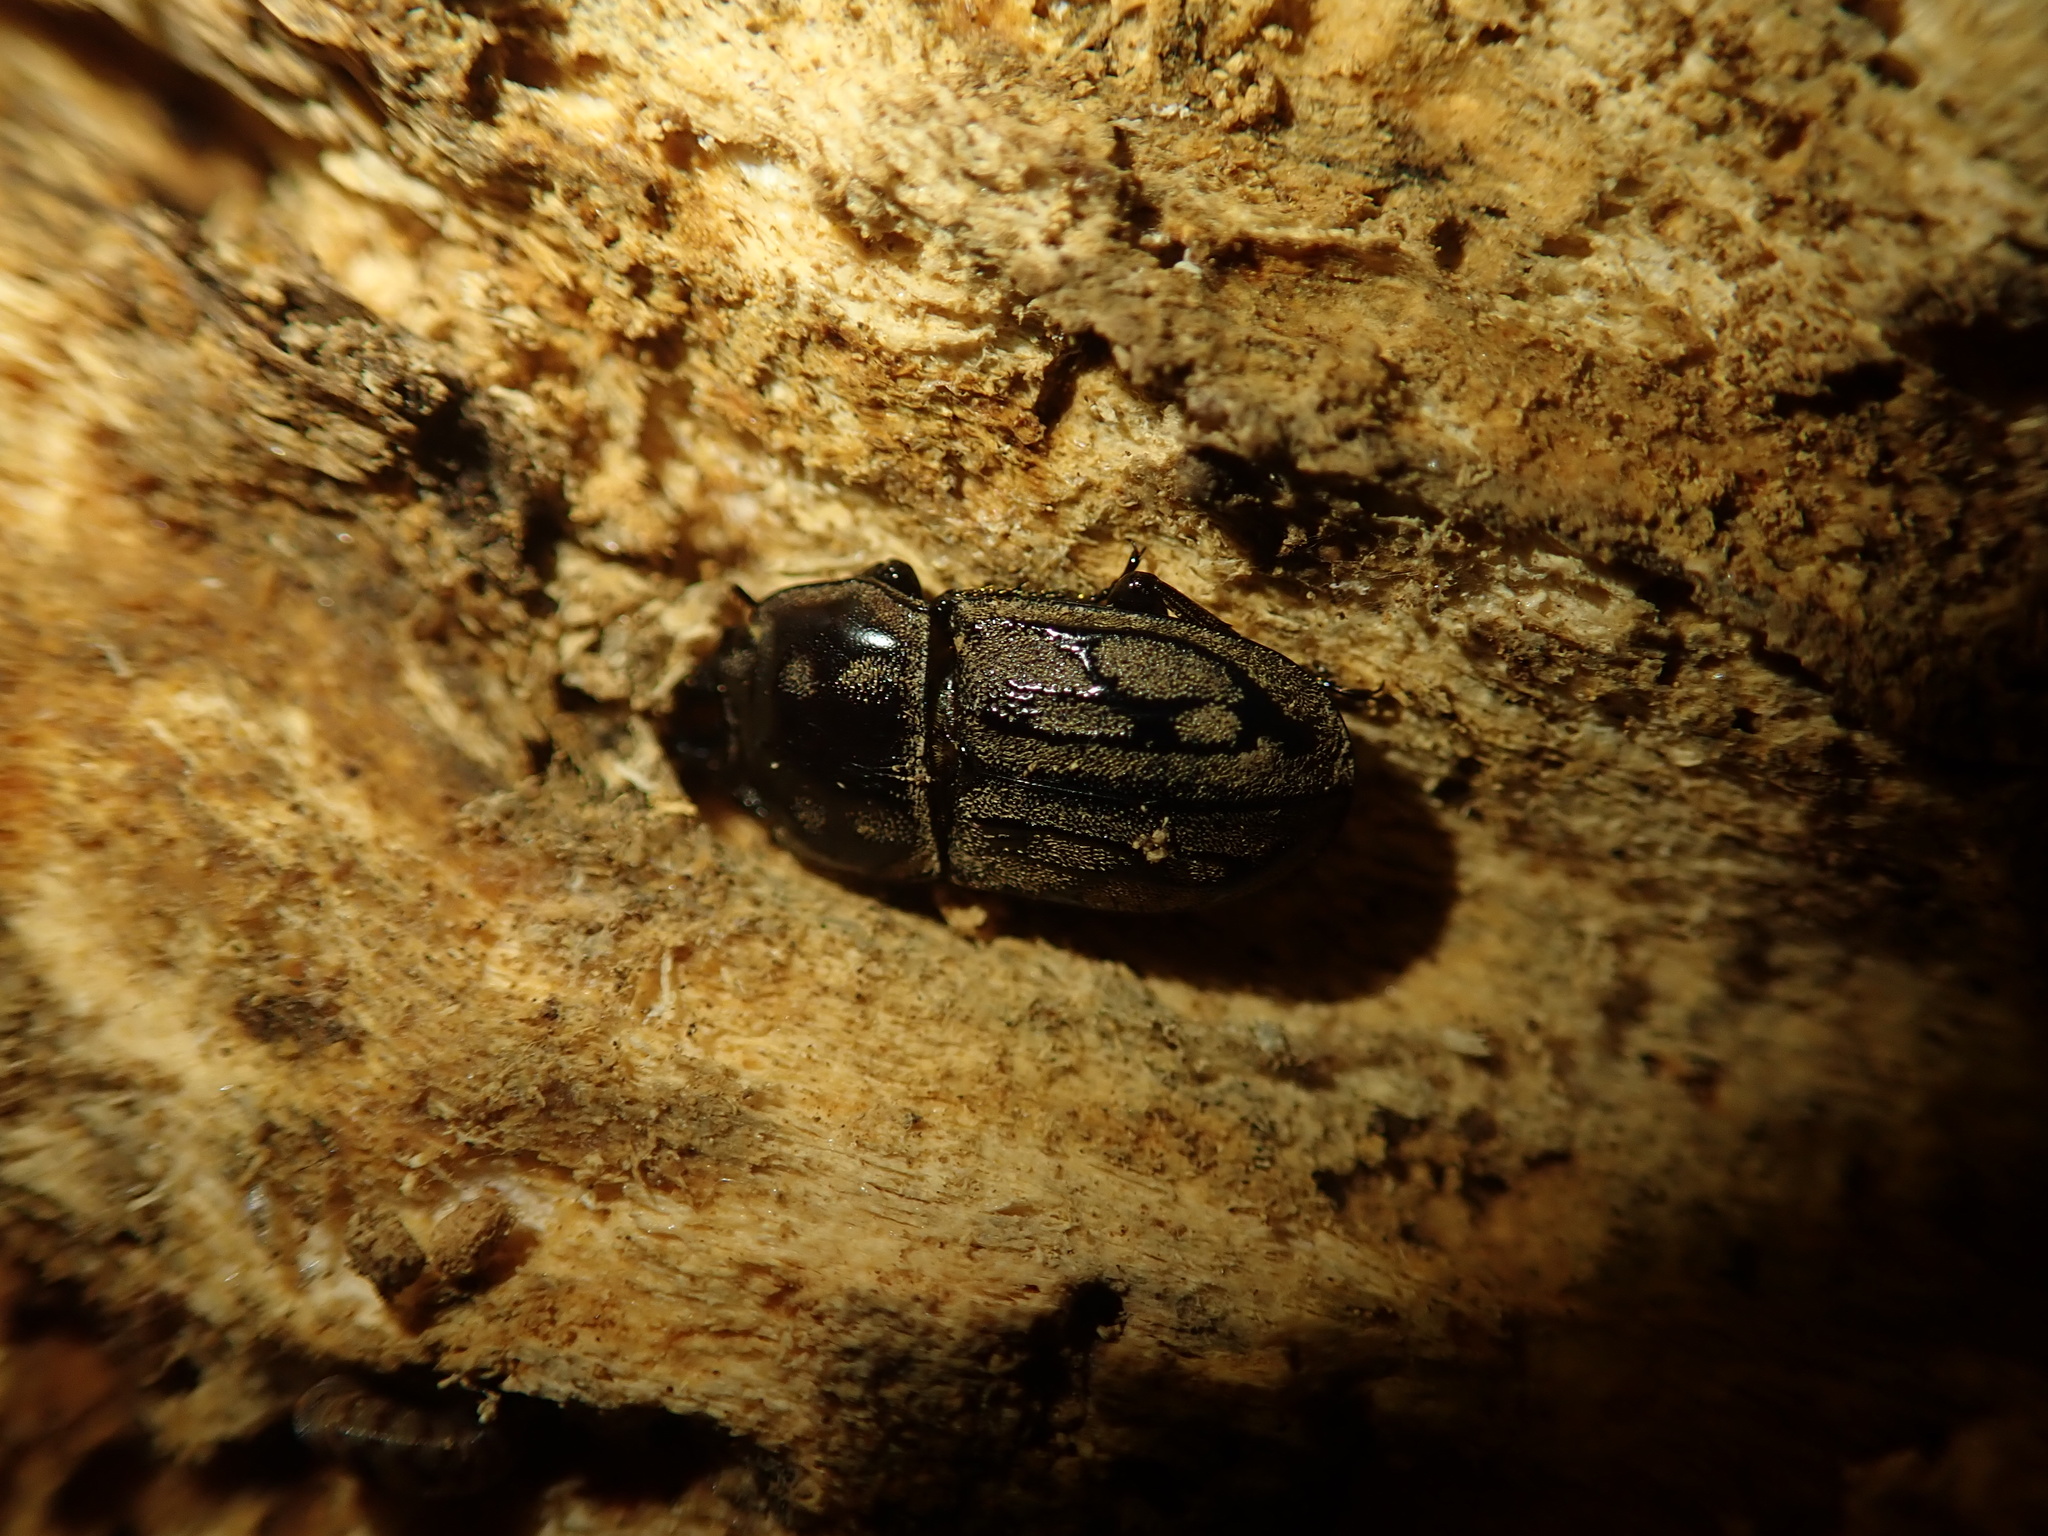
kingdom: Animalia
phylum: Arthropoda
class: Insecta
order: Coleoptera
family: Lucanidae
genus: Paralissotes
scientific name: Paralissotes reticulatus
